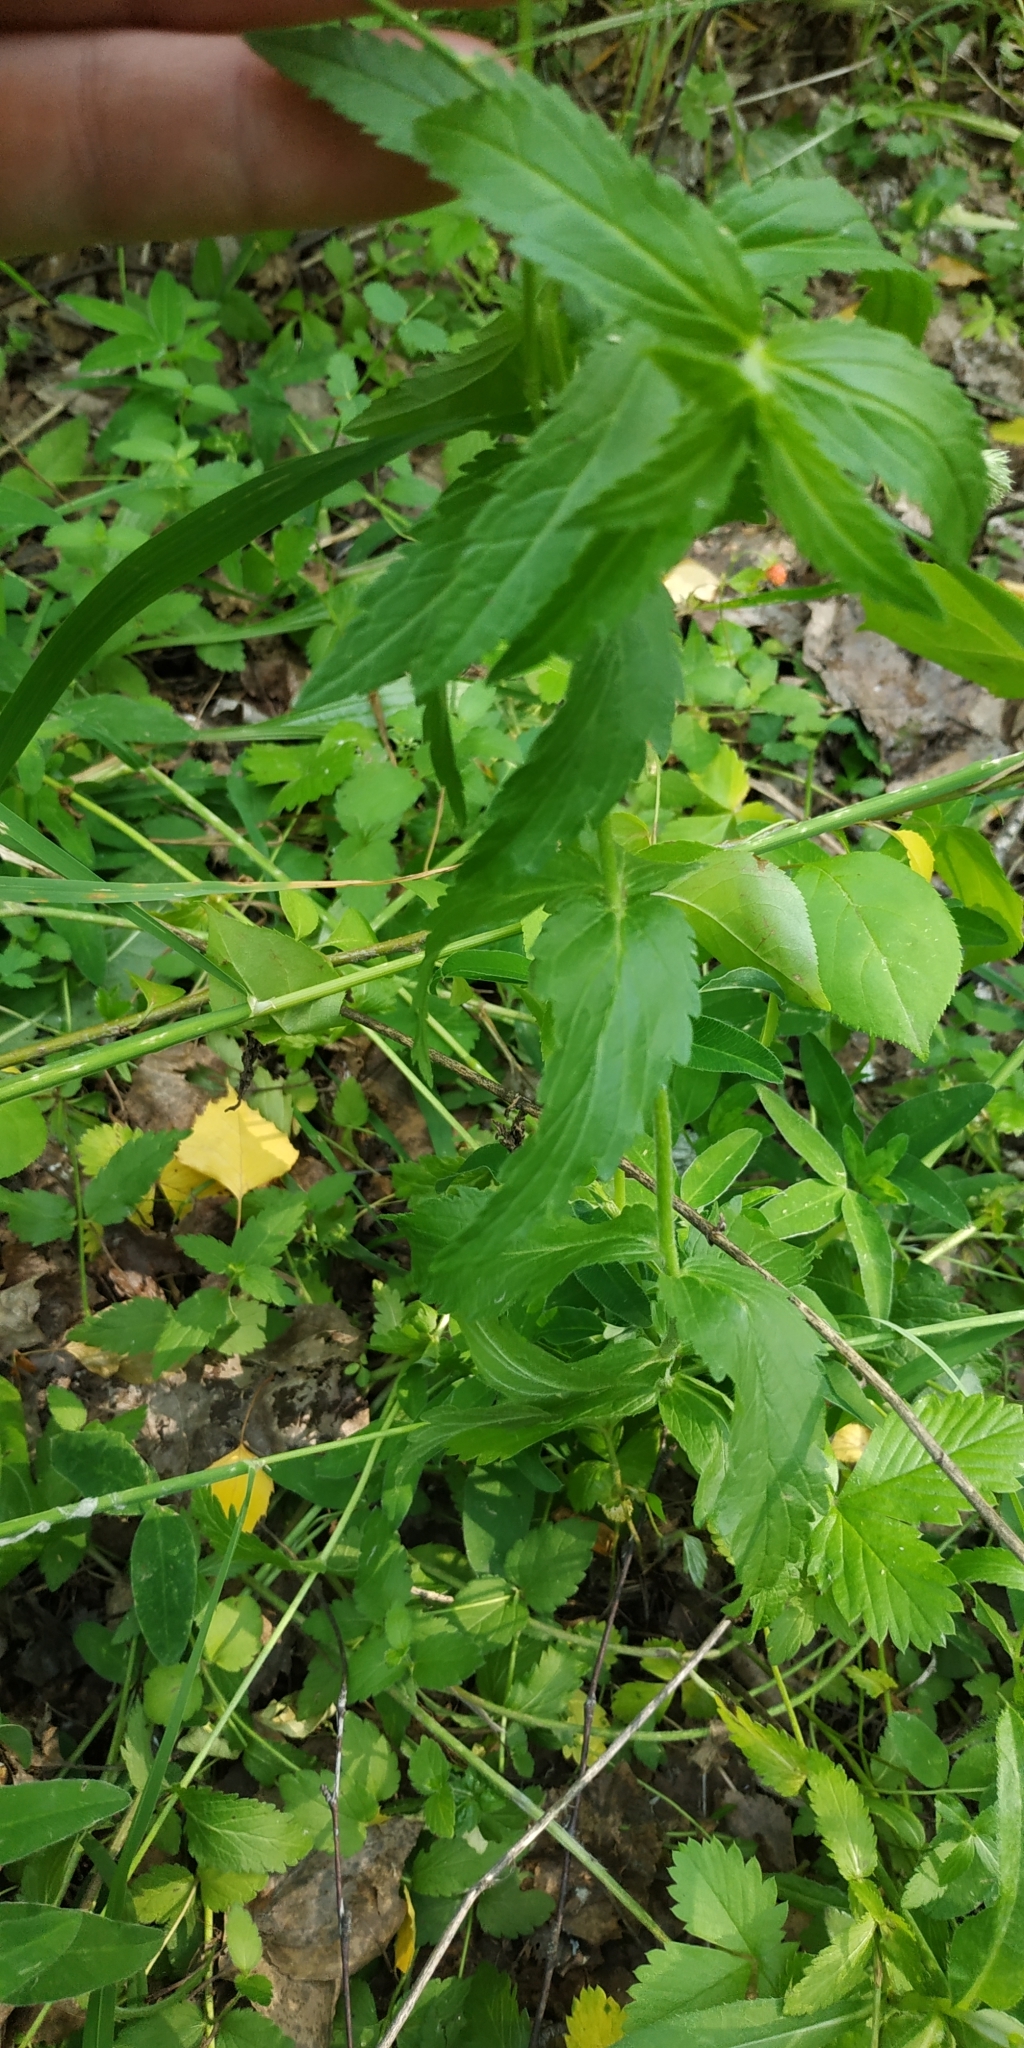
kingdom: Plantae
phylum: Tracheophyta
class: Magnoliopsida
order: Lamiales
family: Plantaginaceae
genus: Veronica
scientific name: Veronica teucrium
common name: Large speedwell
